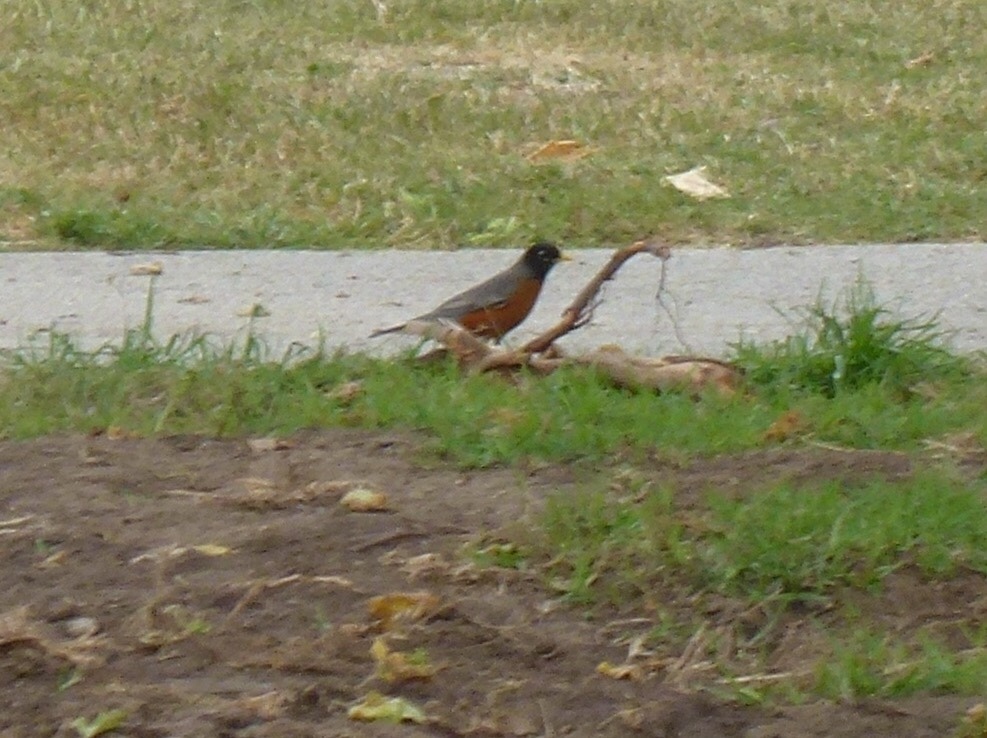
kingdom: Animalia
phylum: Chordata
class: Aves
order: Passeriformes
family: Turdidae
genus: Turdus
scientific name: Turdus migratorius
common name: American robin
